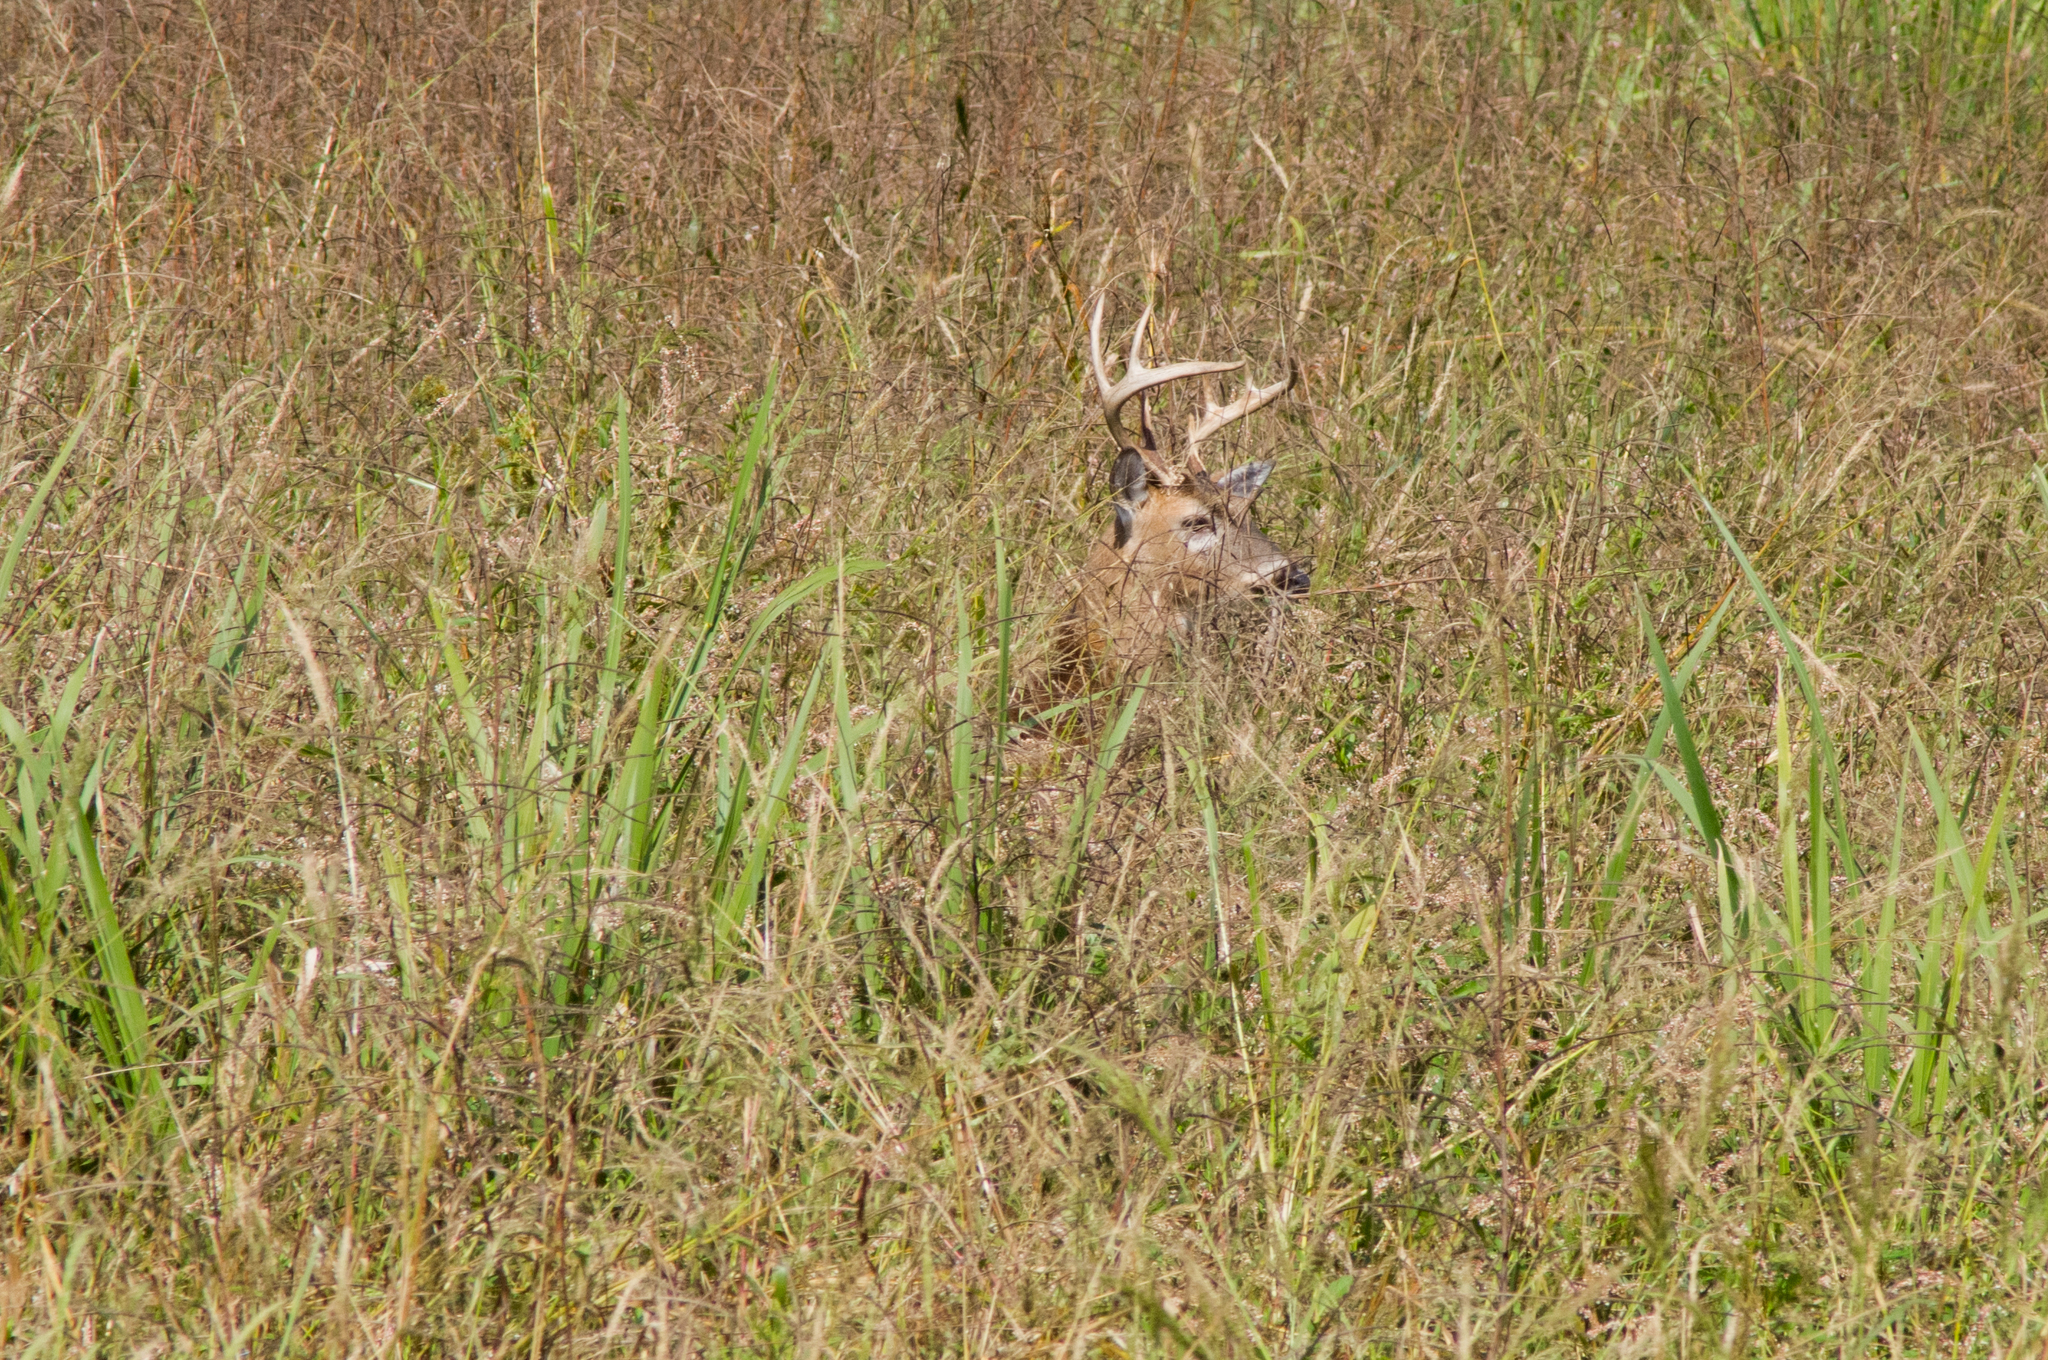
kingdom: Animalia
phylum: Chordata
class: Mammalia
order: Artiodactyla
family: Cervidae
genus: Odocoileus
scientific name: Odocoileus virginianus
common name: White-tailed deer
